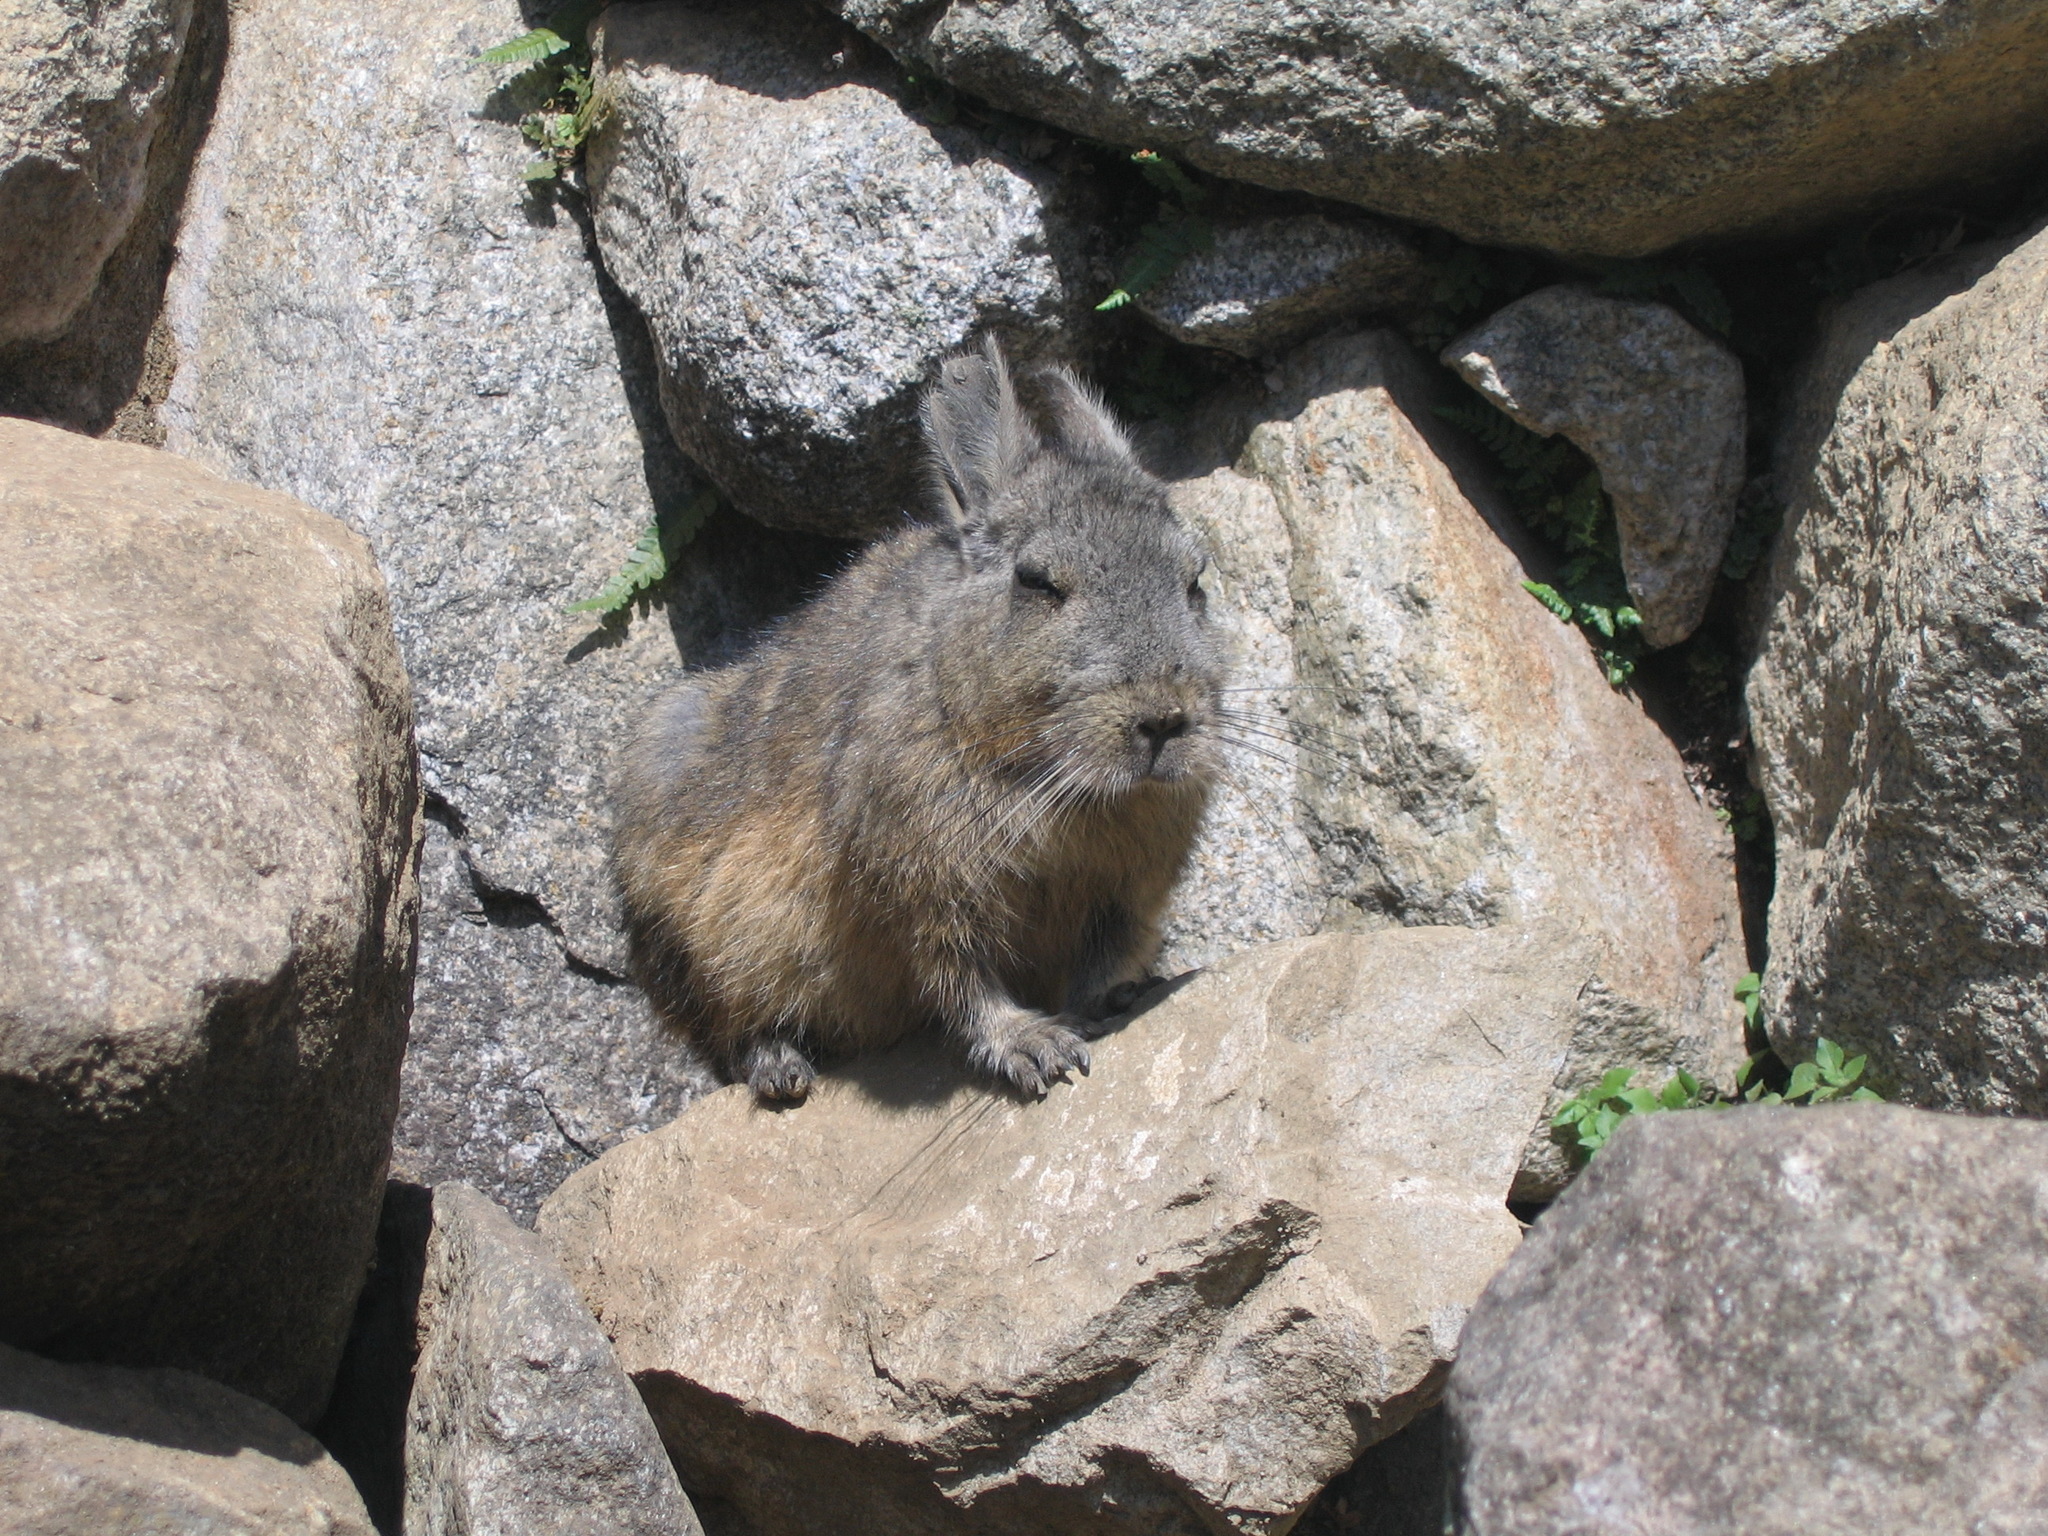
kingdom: Animalia
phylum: Chordata
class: Mammalia
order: Rodentia
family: Chinchillidae
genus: Lagidium
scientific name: Lagidium viscacia
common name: Southern viscacha
